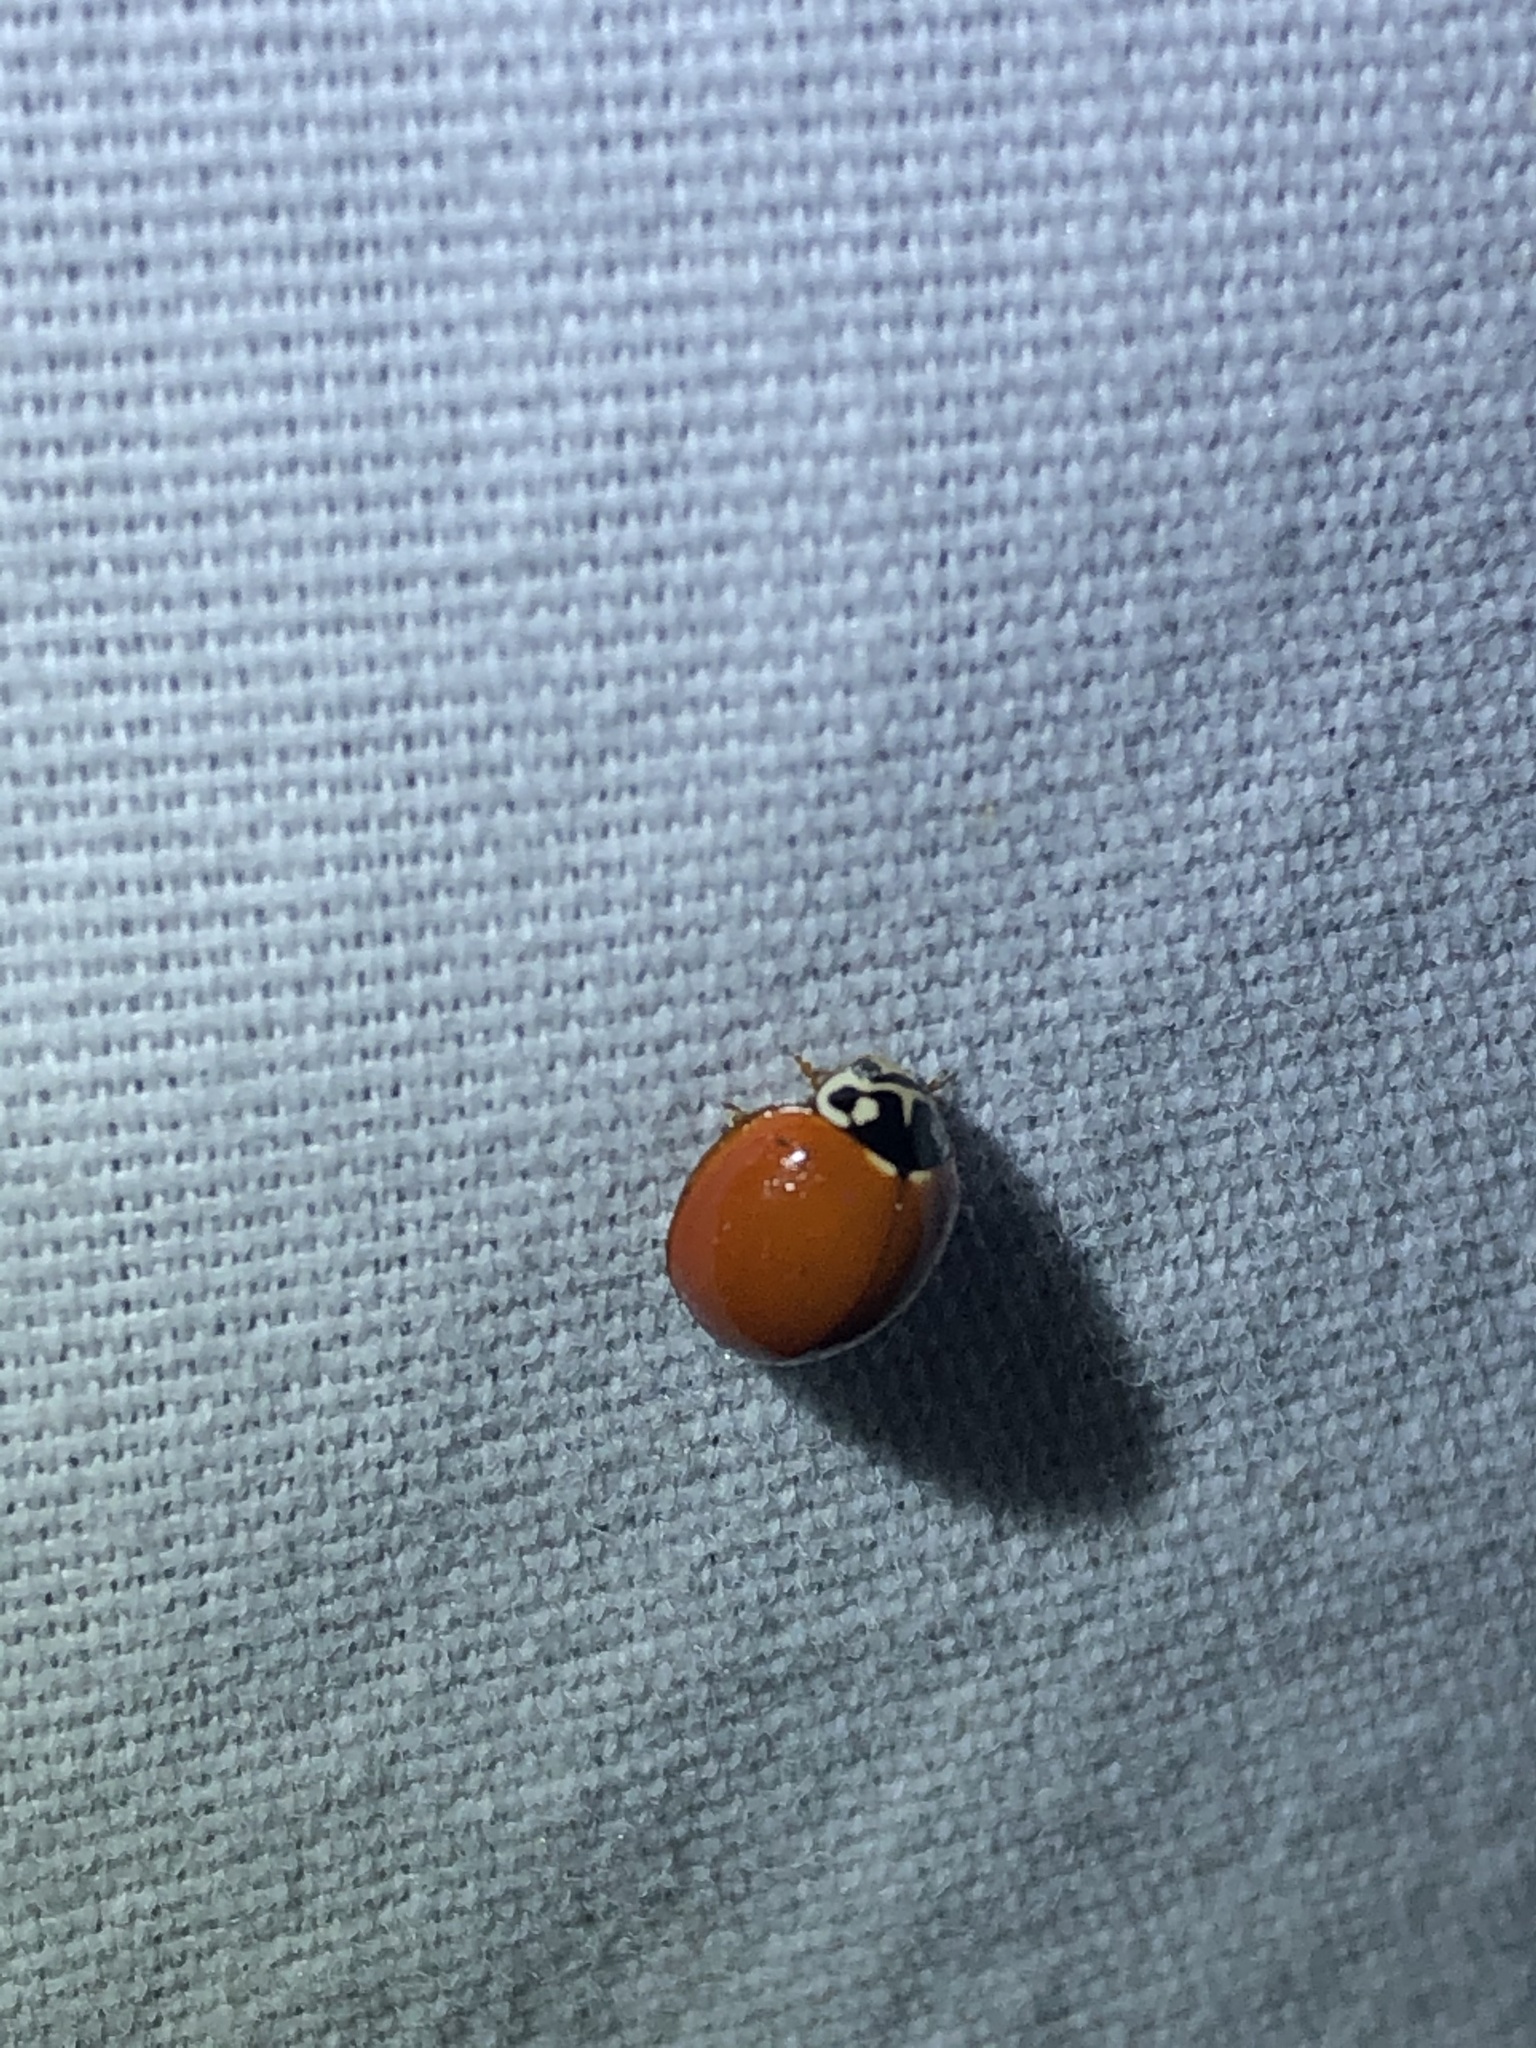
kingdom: Animalia
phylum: Arthropoda
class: Insecta
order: Coleoptera
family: Coccinellidae
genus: Cycloneda
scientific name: Cycloneda sanguinea
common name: Ladybird beetle
